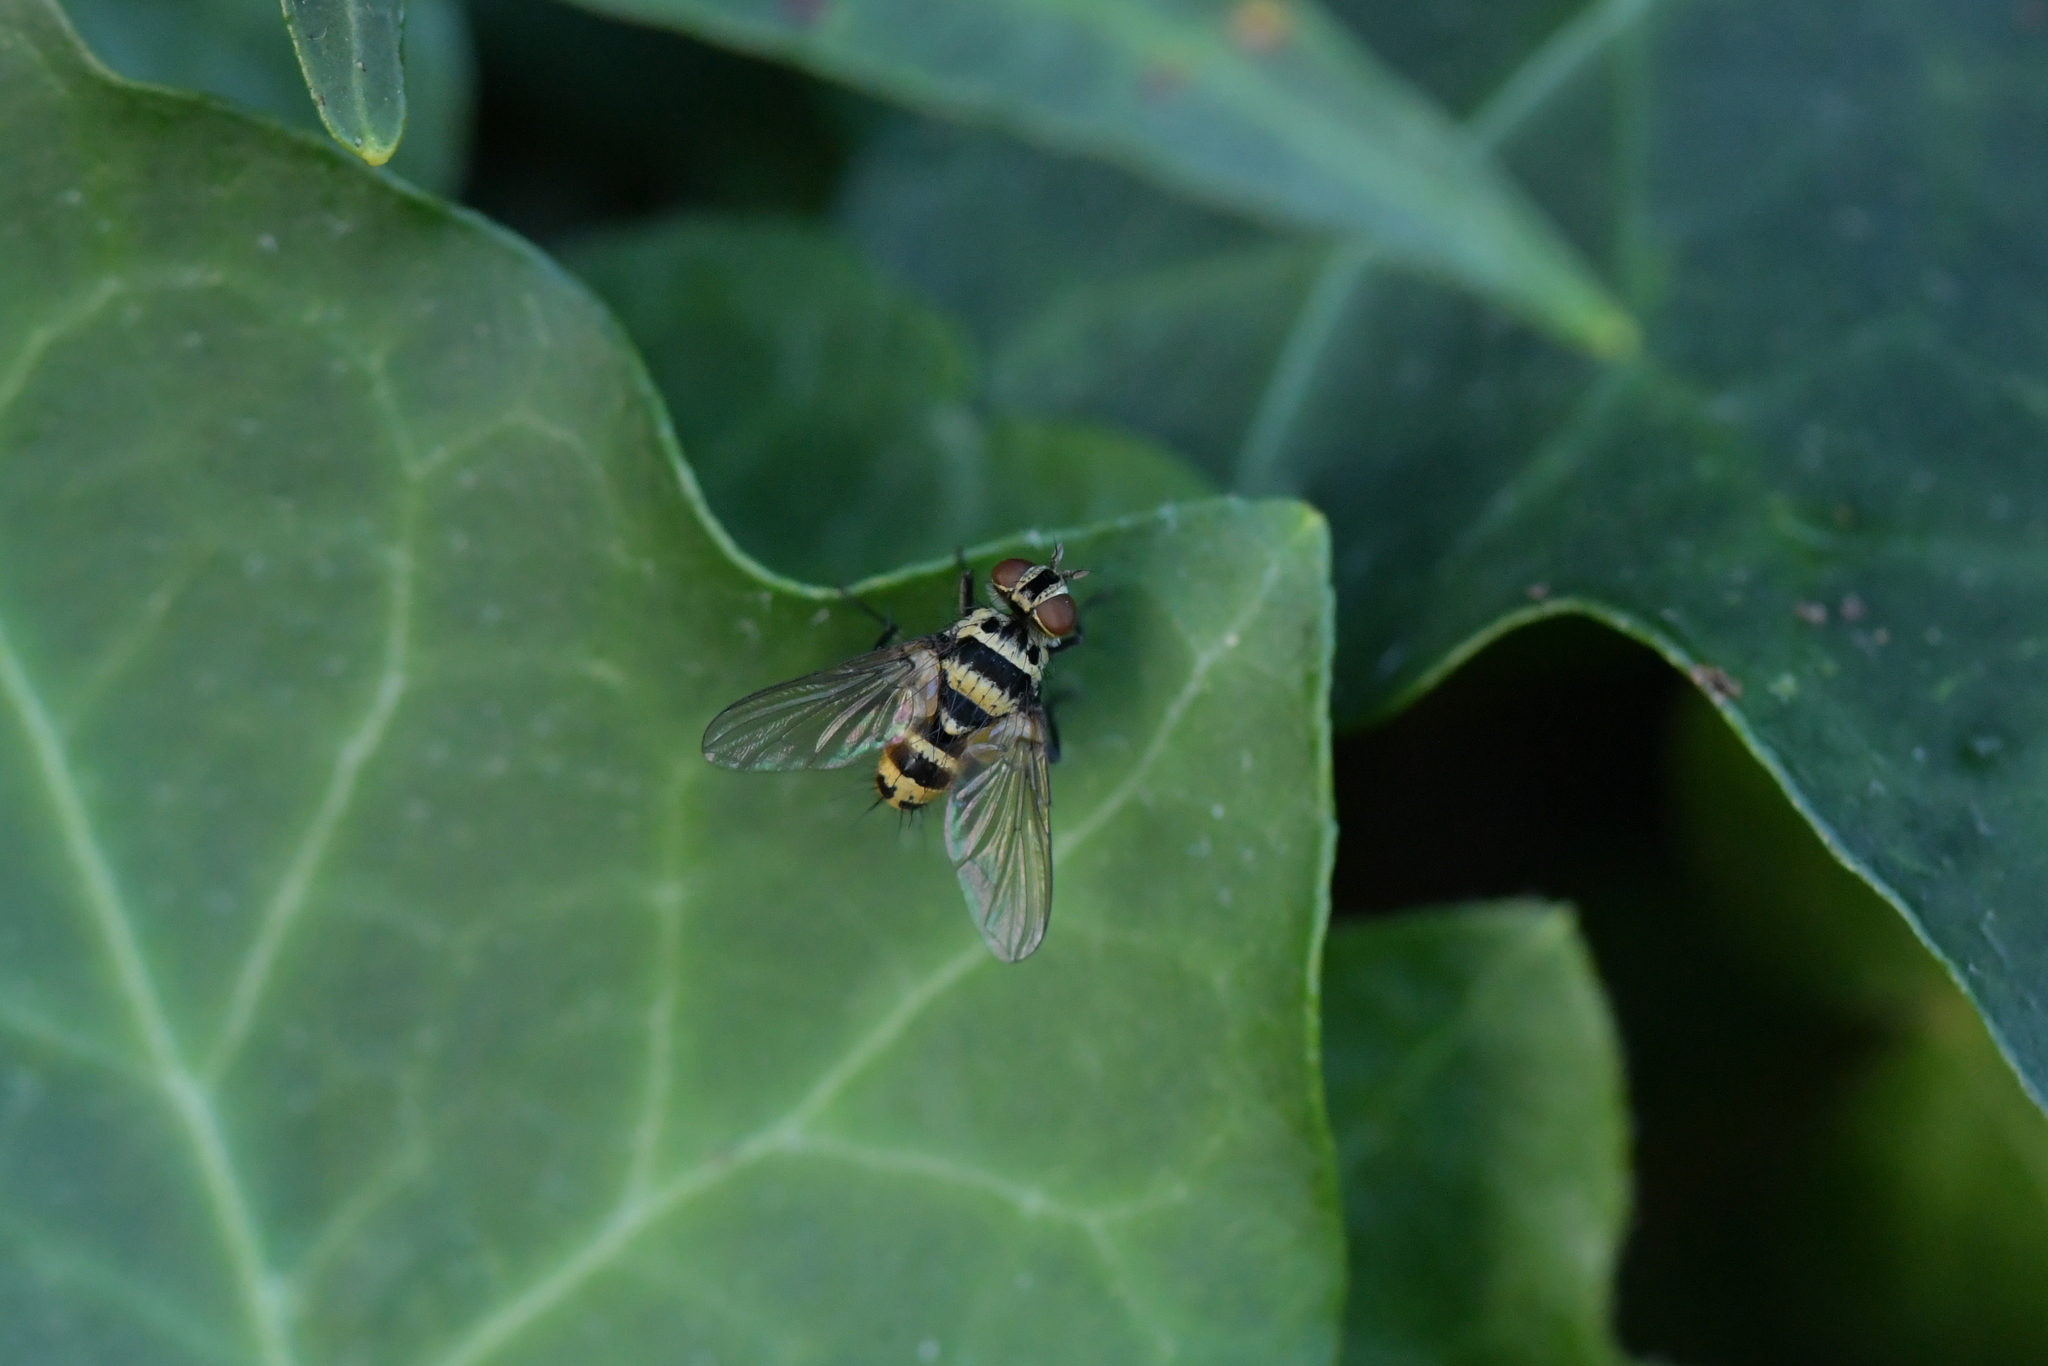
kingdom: Animalia
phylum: Arthropoda
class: Insecta
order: Diptera
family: Tachinidae
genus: Trigonospila
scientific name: Trigonospila brevifacies
